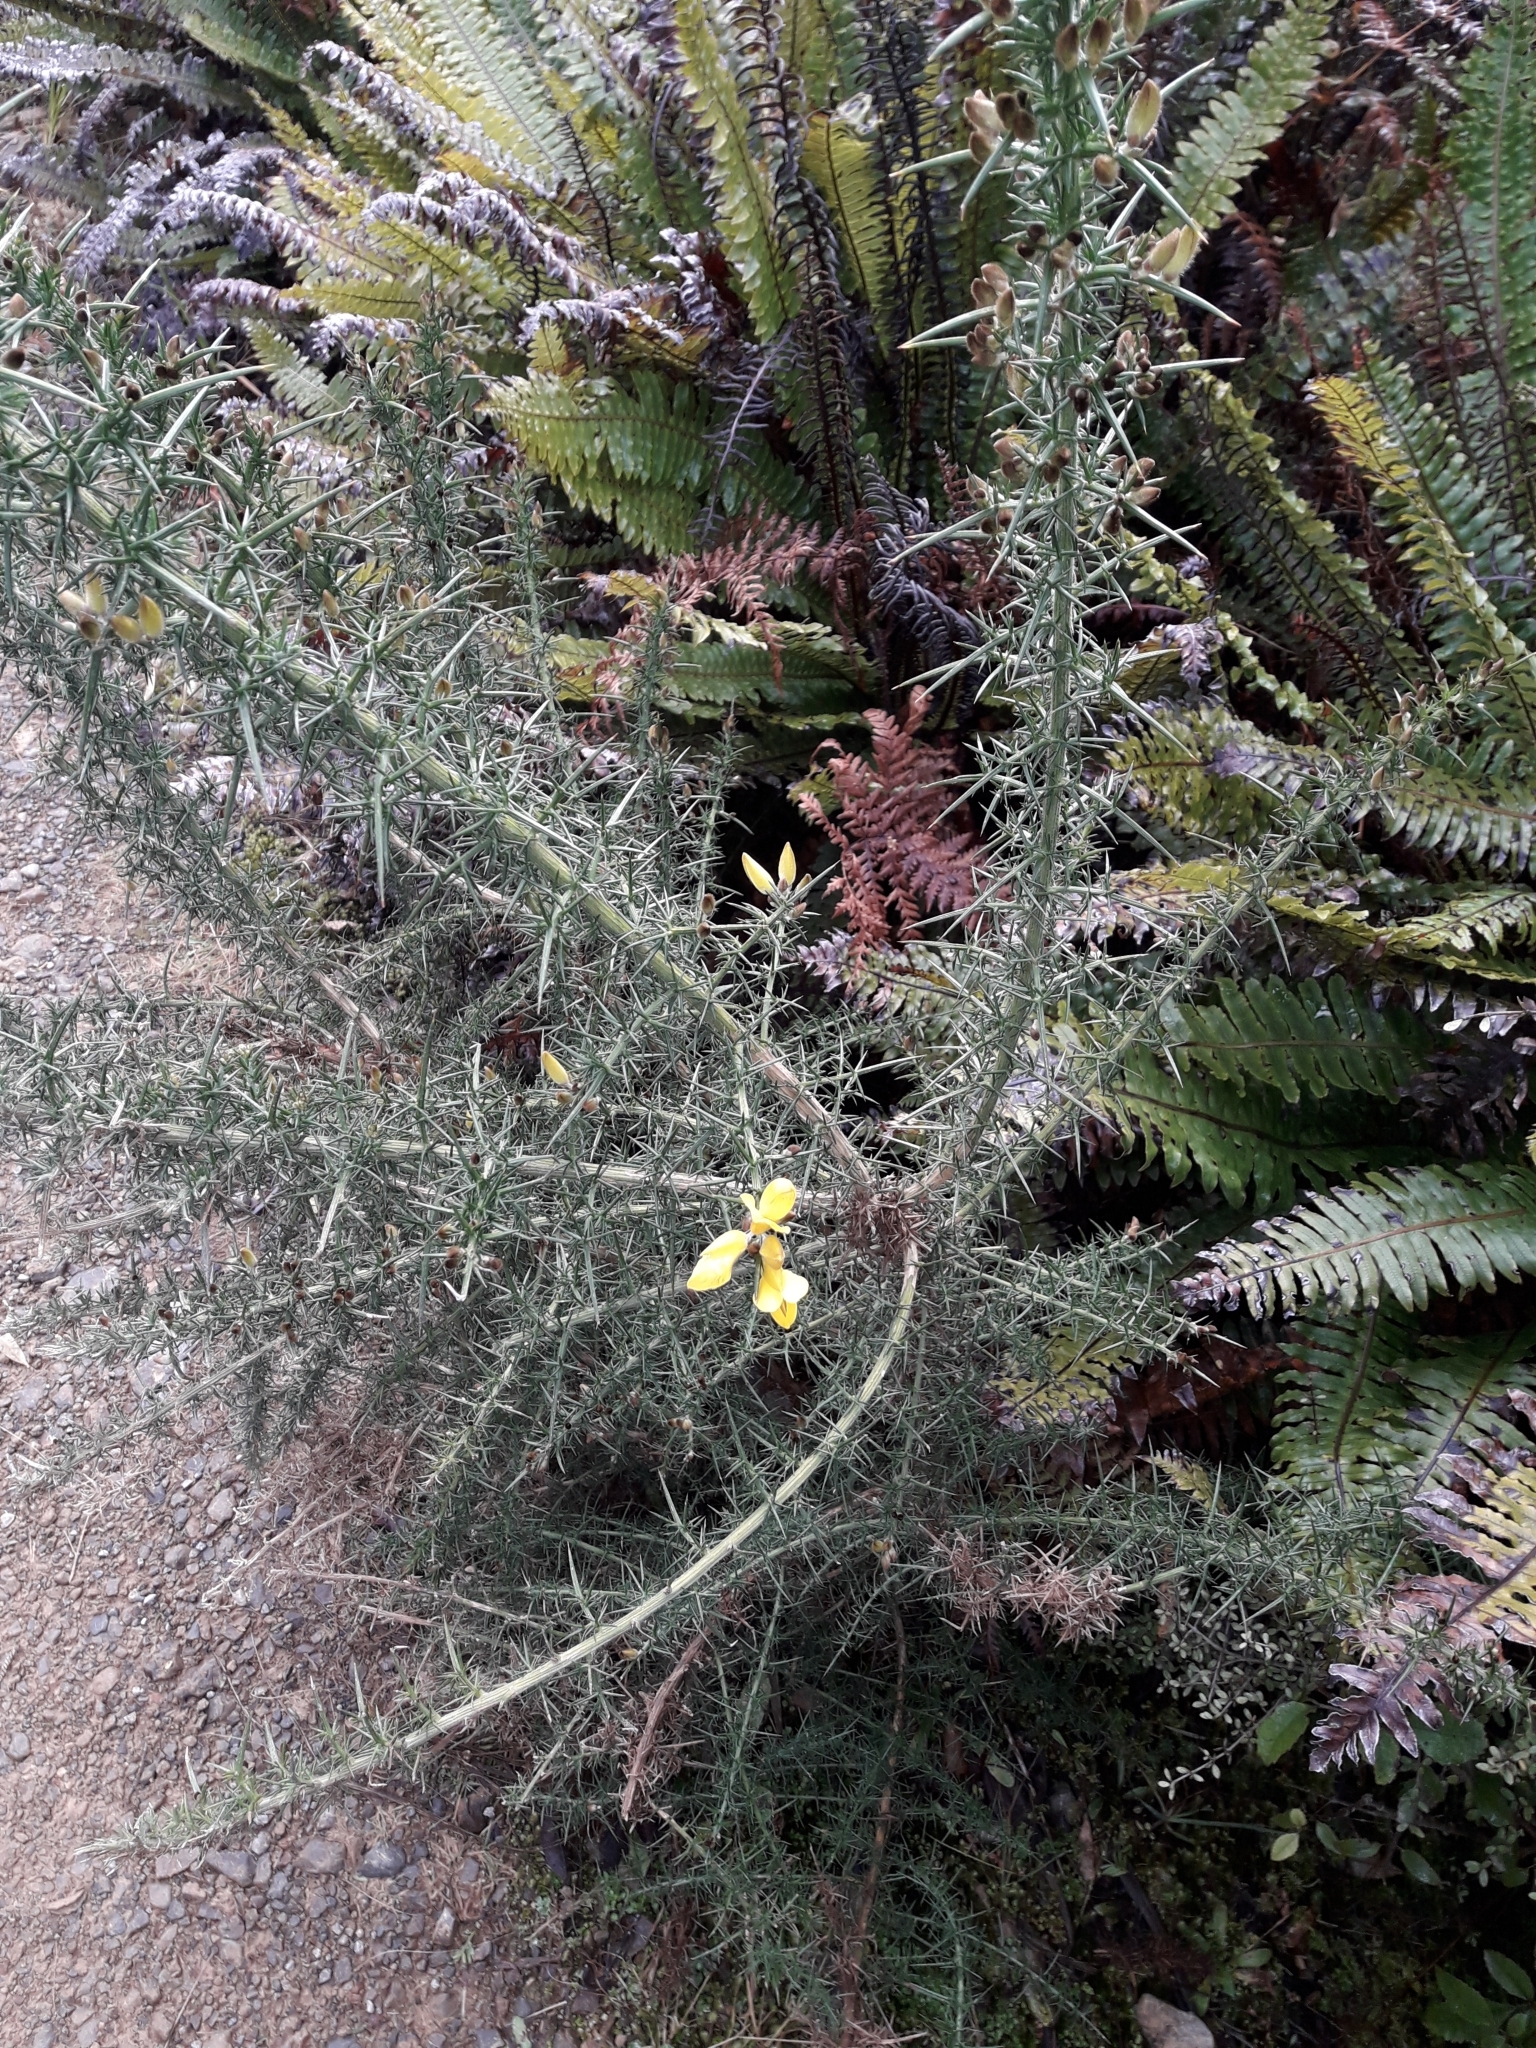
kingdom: Plantae
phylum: Tracheophyta
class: Magnoliopsida
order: Fabales
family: Fabaceae
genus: Ulex
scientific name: Ulex europaeus
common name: Common gorse
